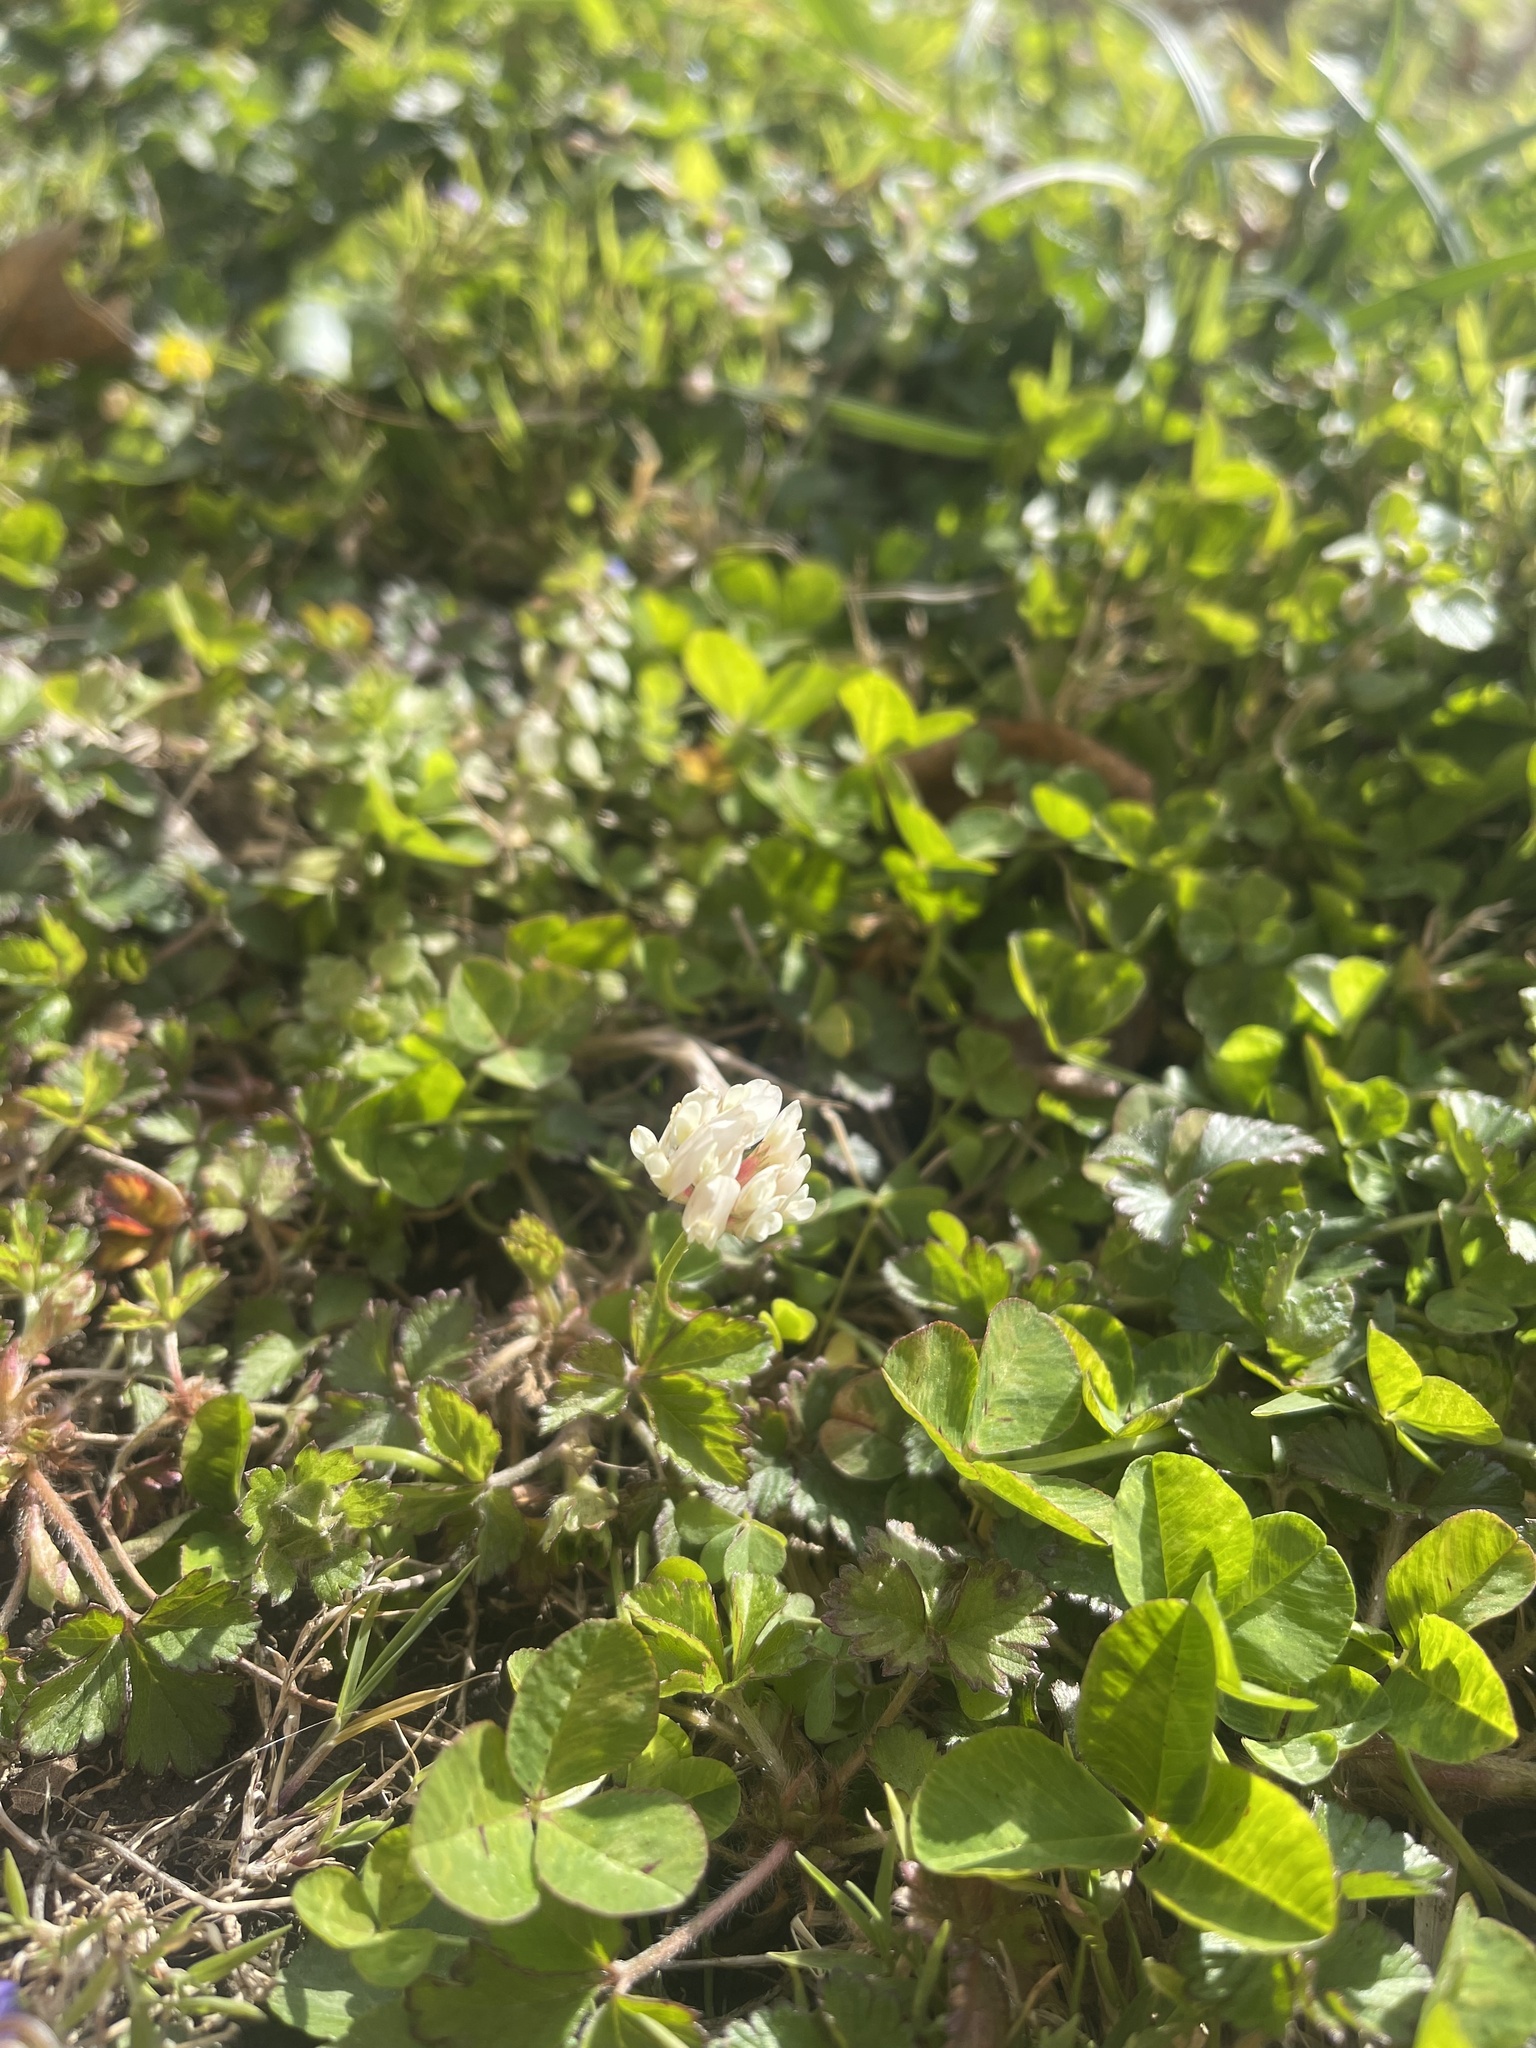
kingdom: Plantae
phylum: Tracheophyta
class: Magnoliopsida
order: Fabales
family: Fabaceae
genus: Trifolium
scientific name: Trifolium repens
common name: White clover
